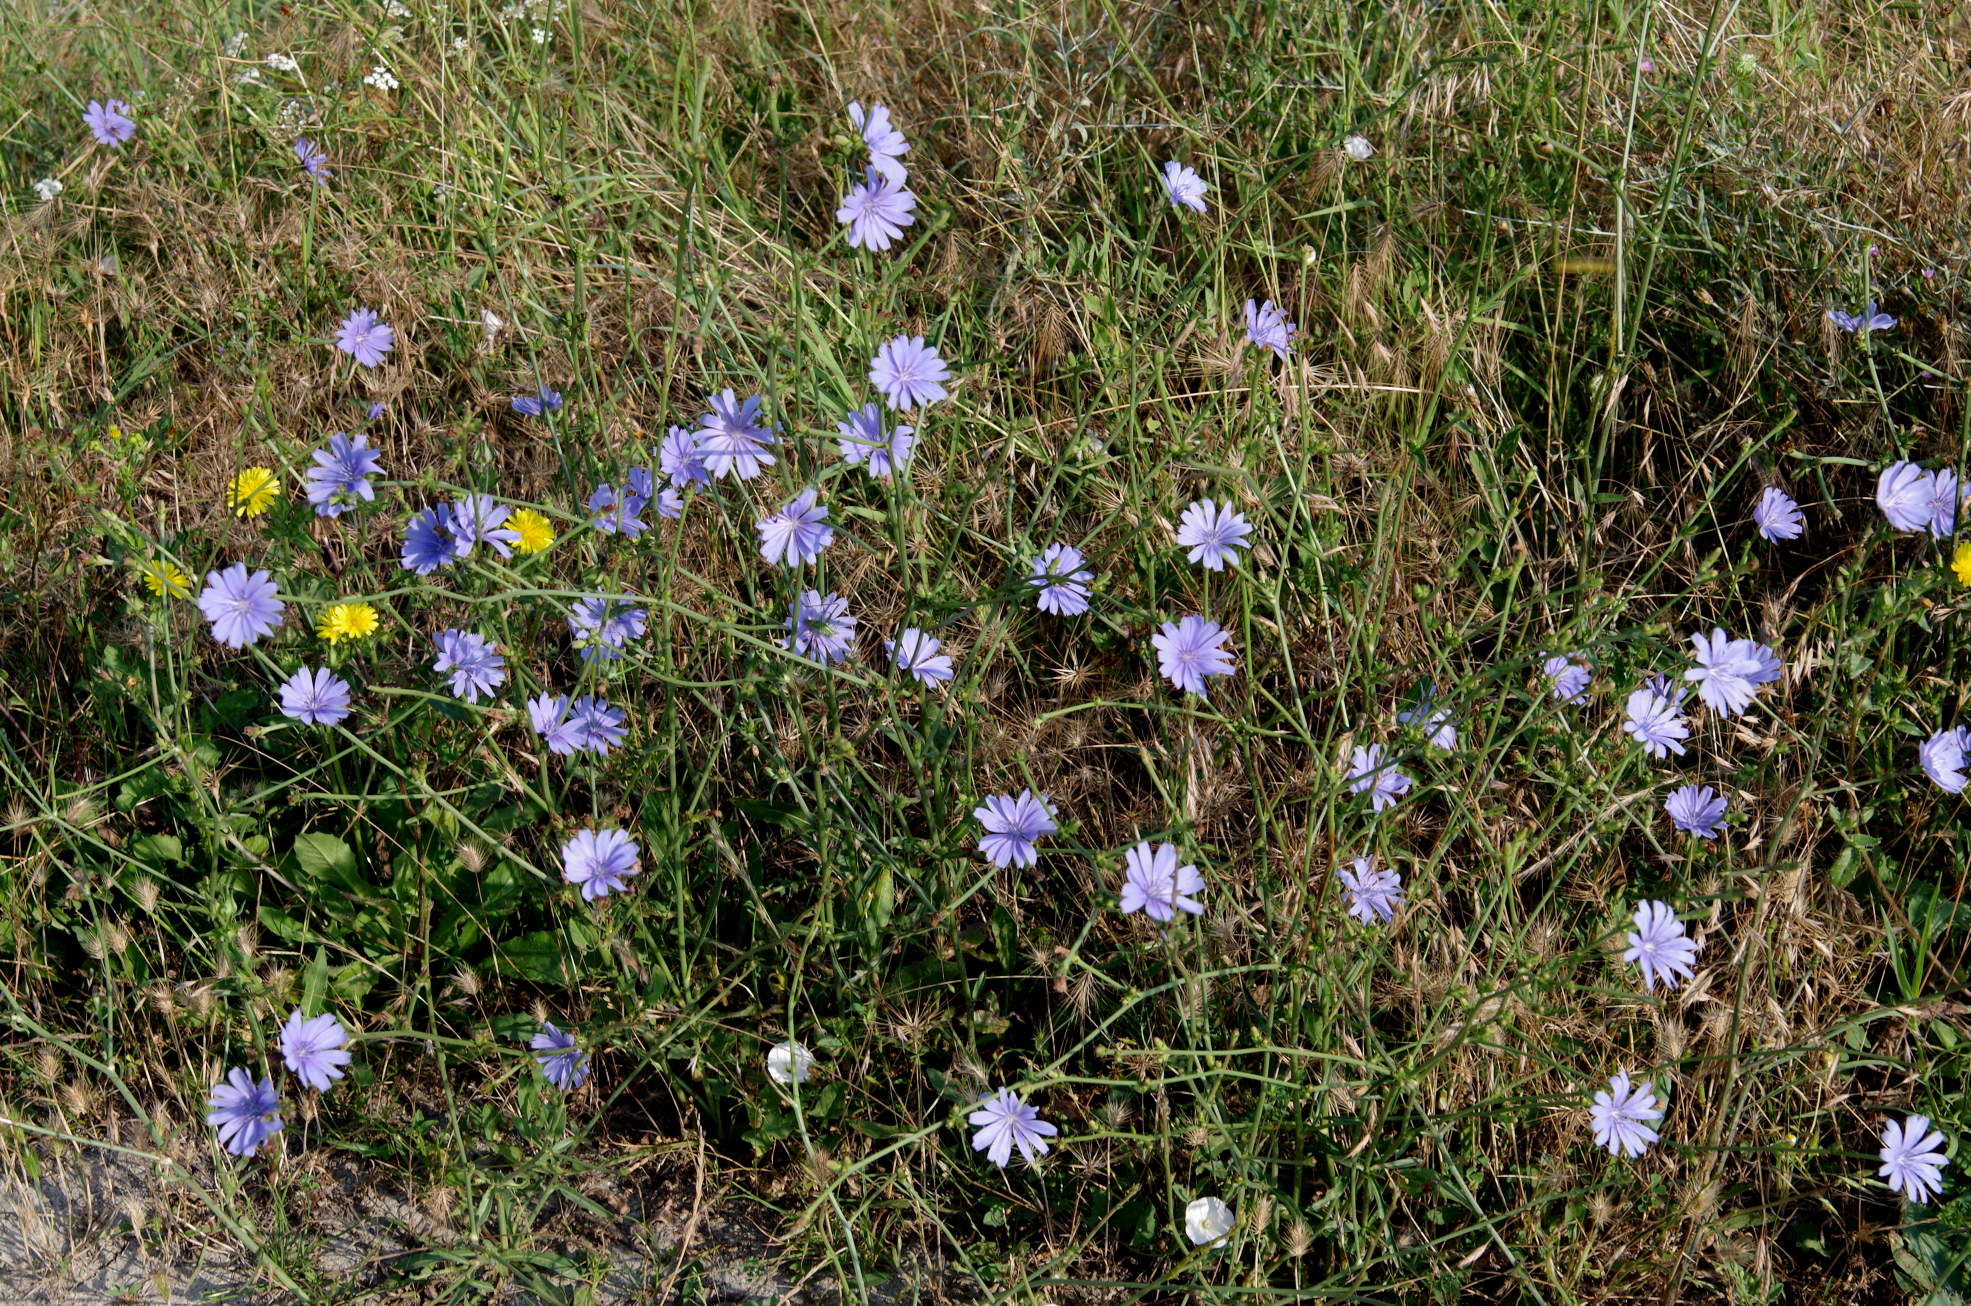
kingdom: Plantae
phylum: Tracheophyta
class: Magnoliopsida
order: Asterales
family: Asteraceae
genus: Cichorium
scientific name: Cichorium intybus
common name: Chicory
